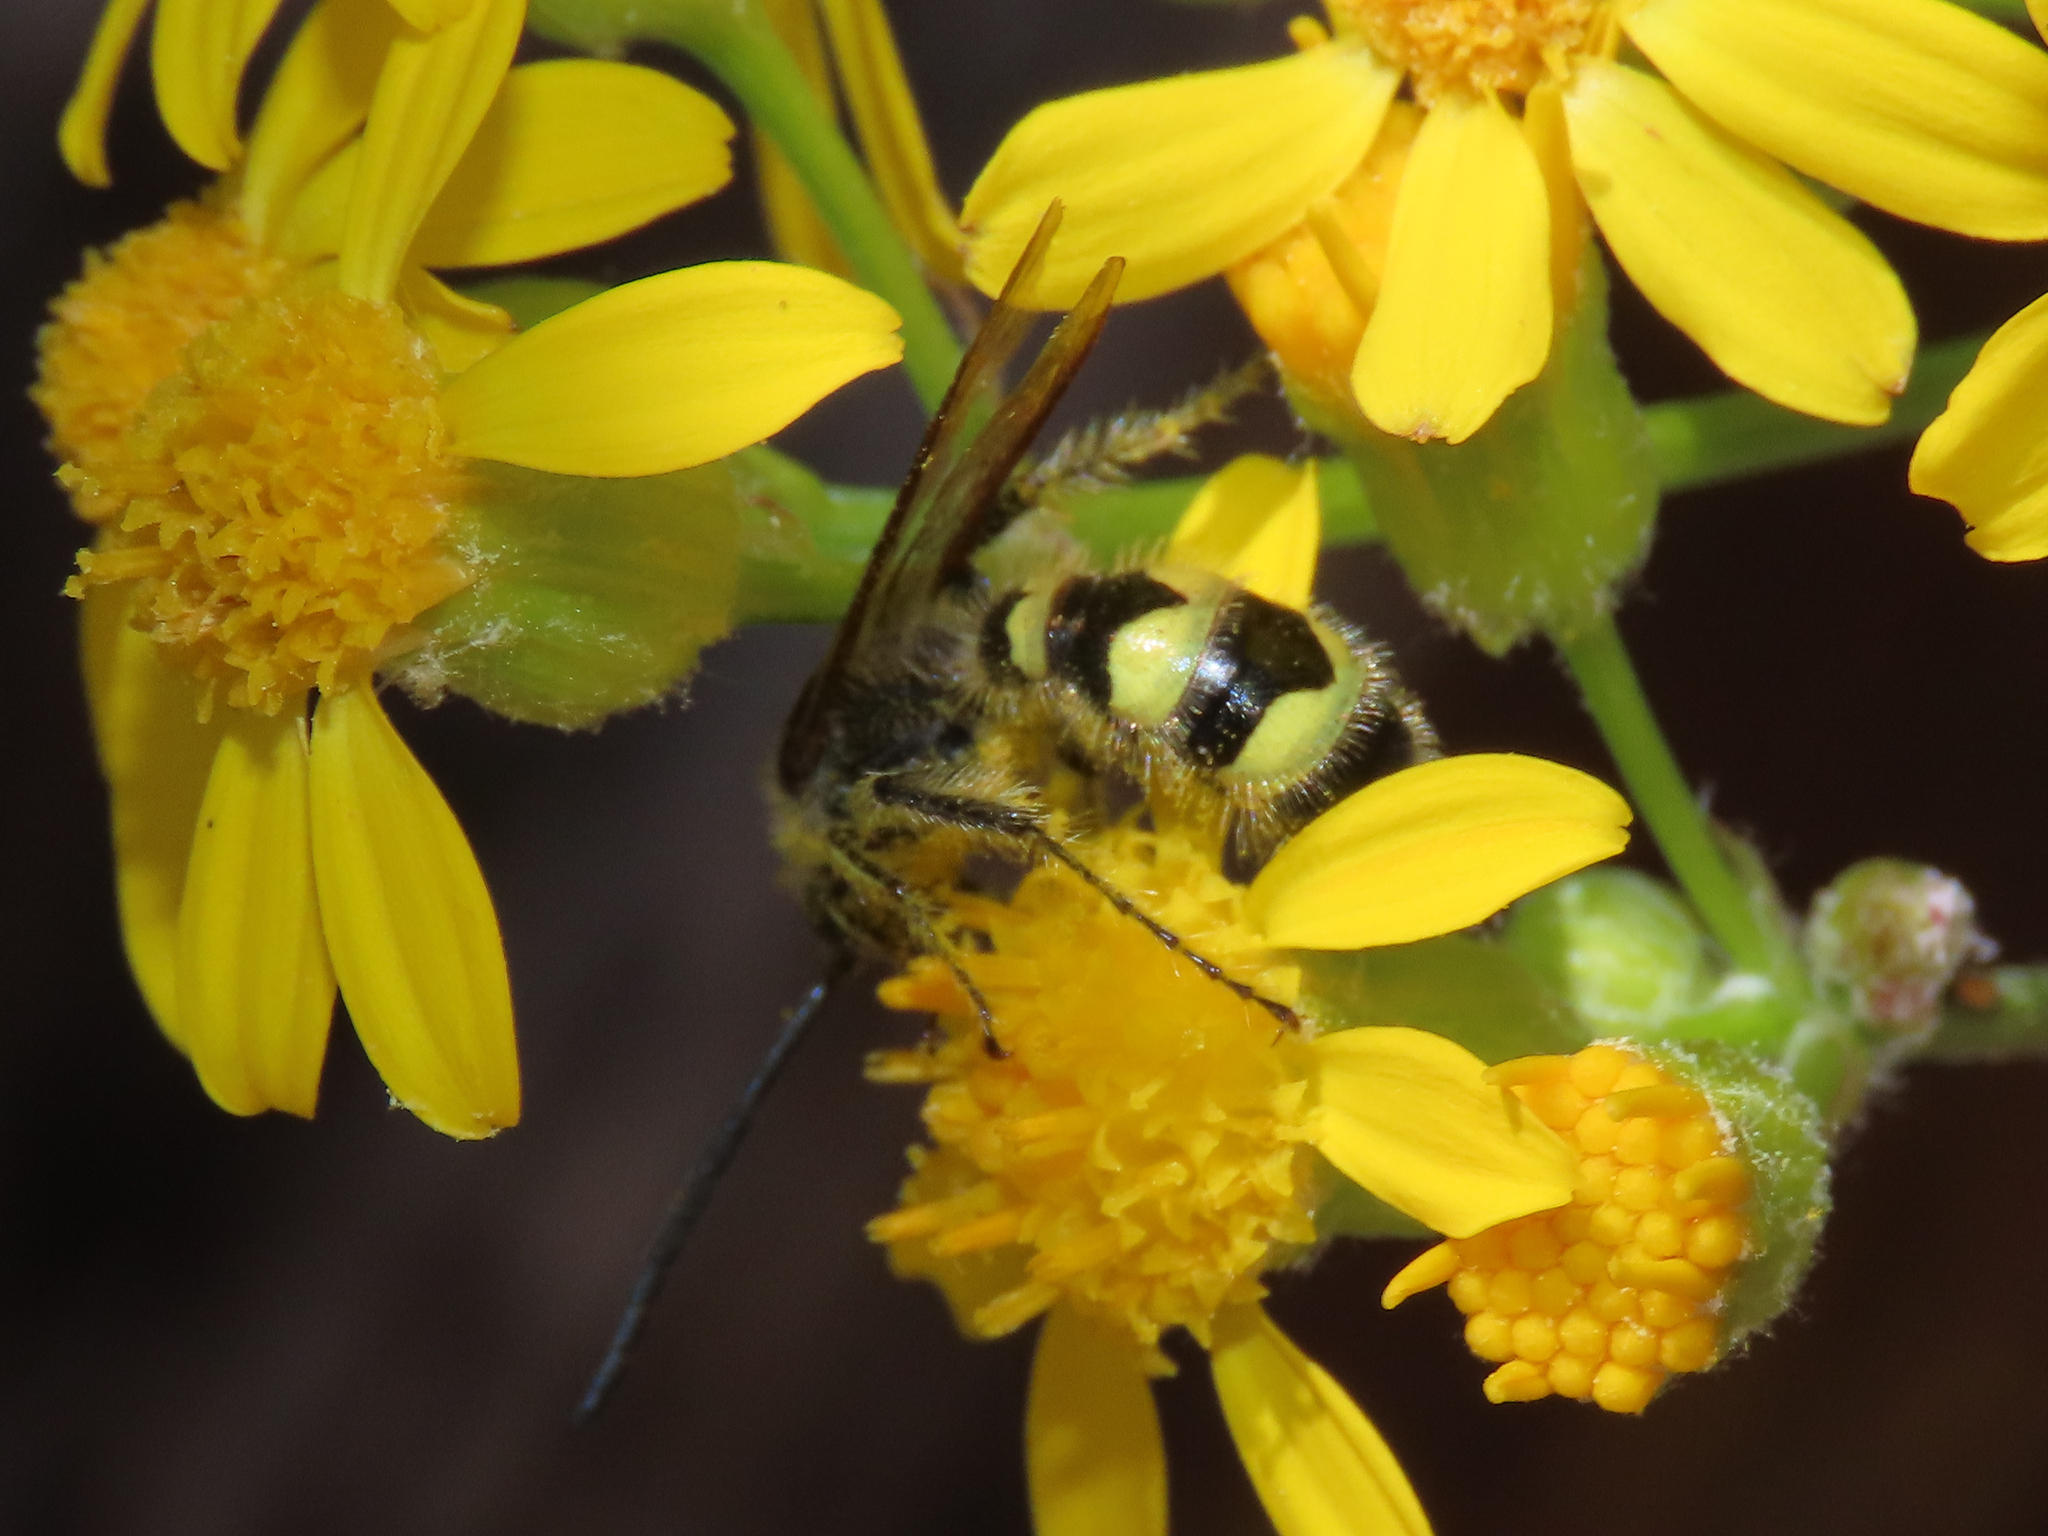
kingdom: Animalia
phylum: Arthropoda
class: Insecta
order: Hymenoptera
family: Scoliidae
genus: Dielis
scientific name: Dielis
